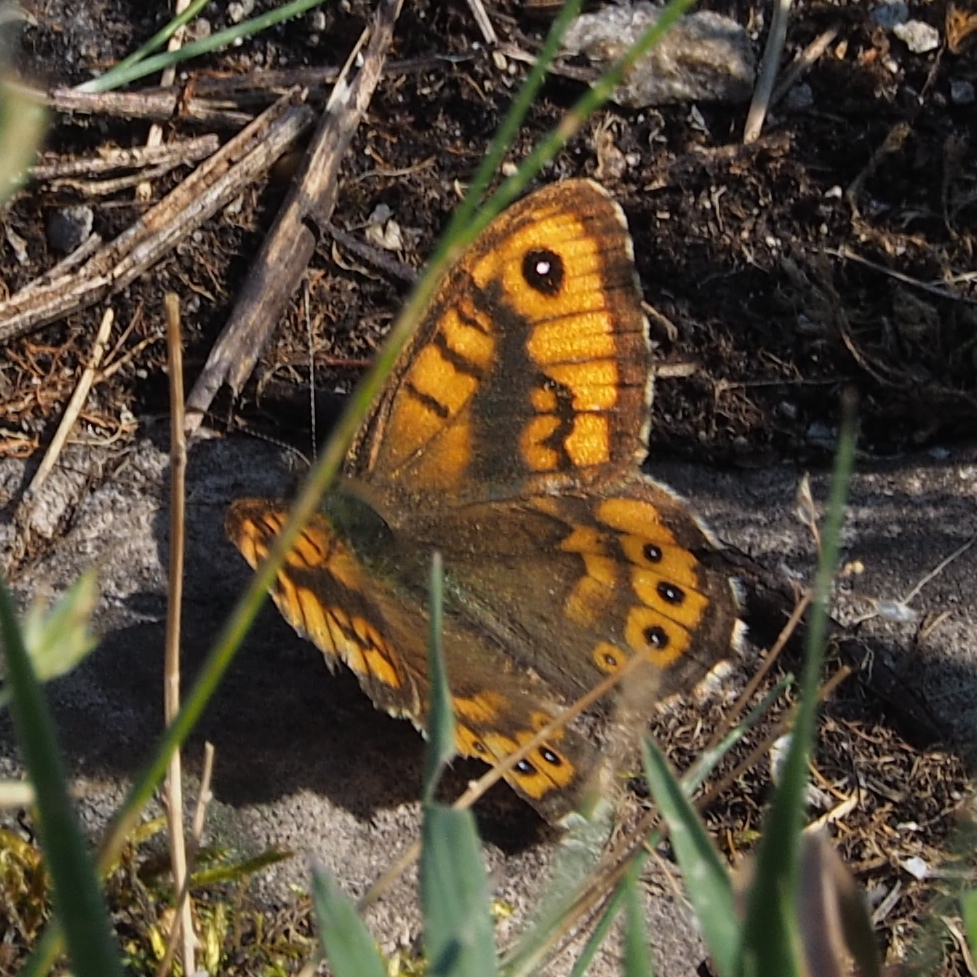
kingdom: Animalia
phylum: Arthropoda
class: Insecta
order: Lepidoptera
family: Nymphalidae
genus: Pararge
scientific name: Pararge Lasiommata megera
